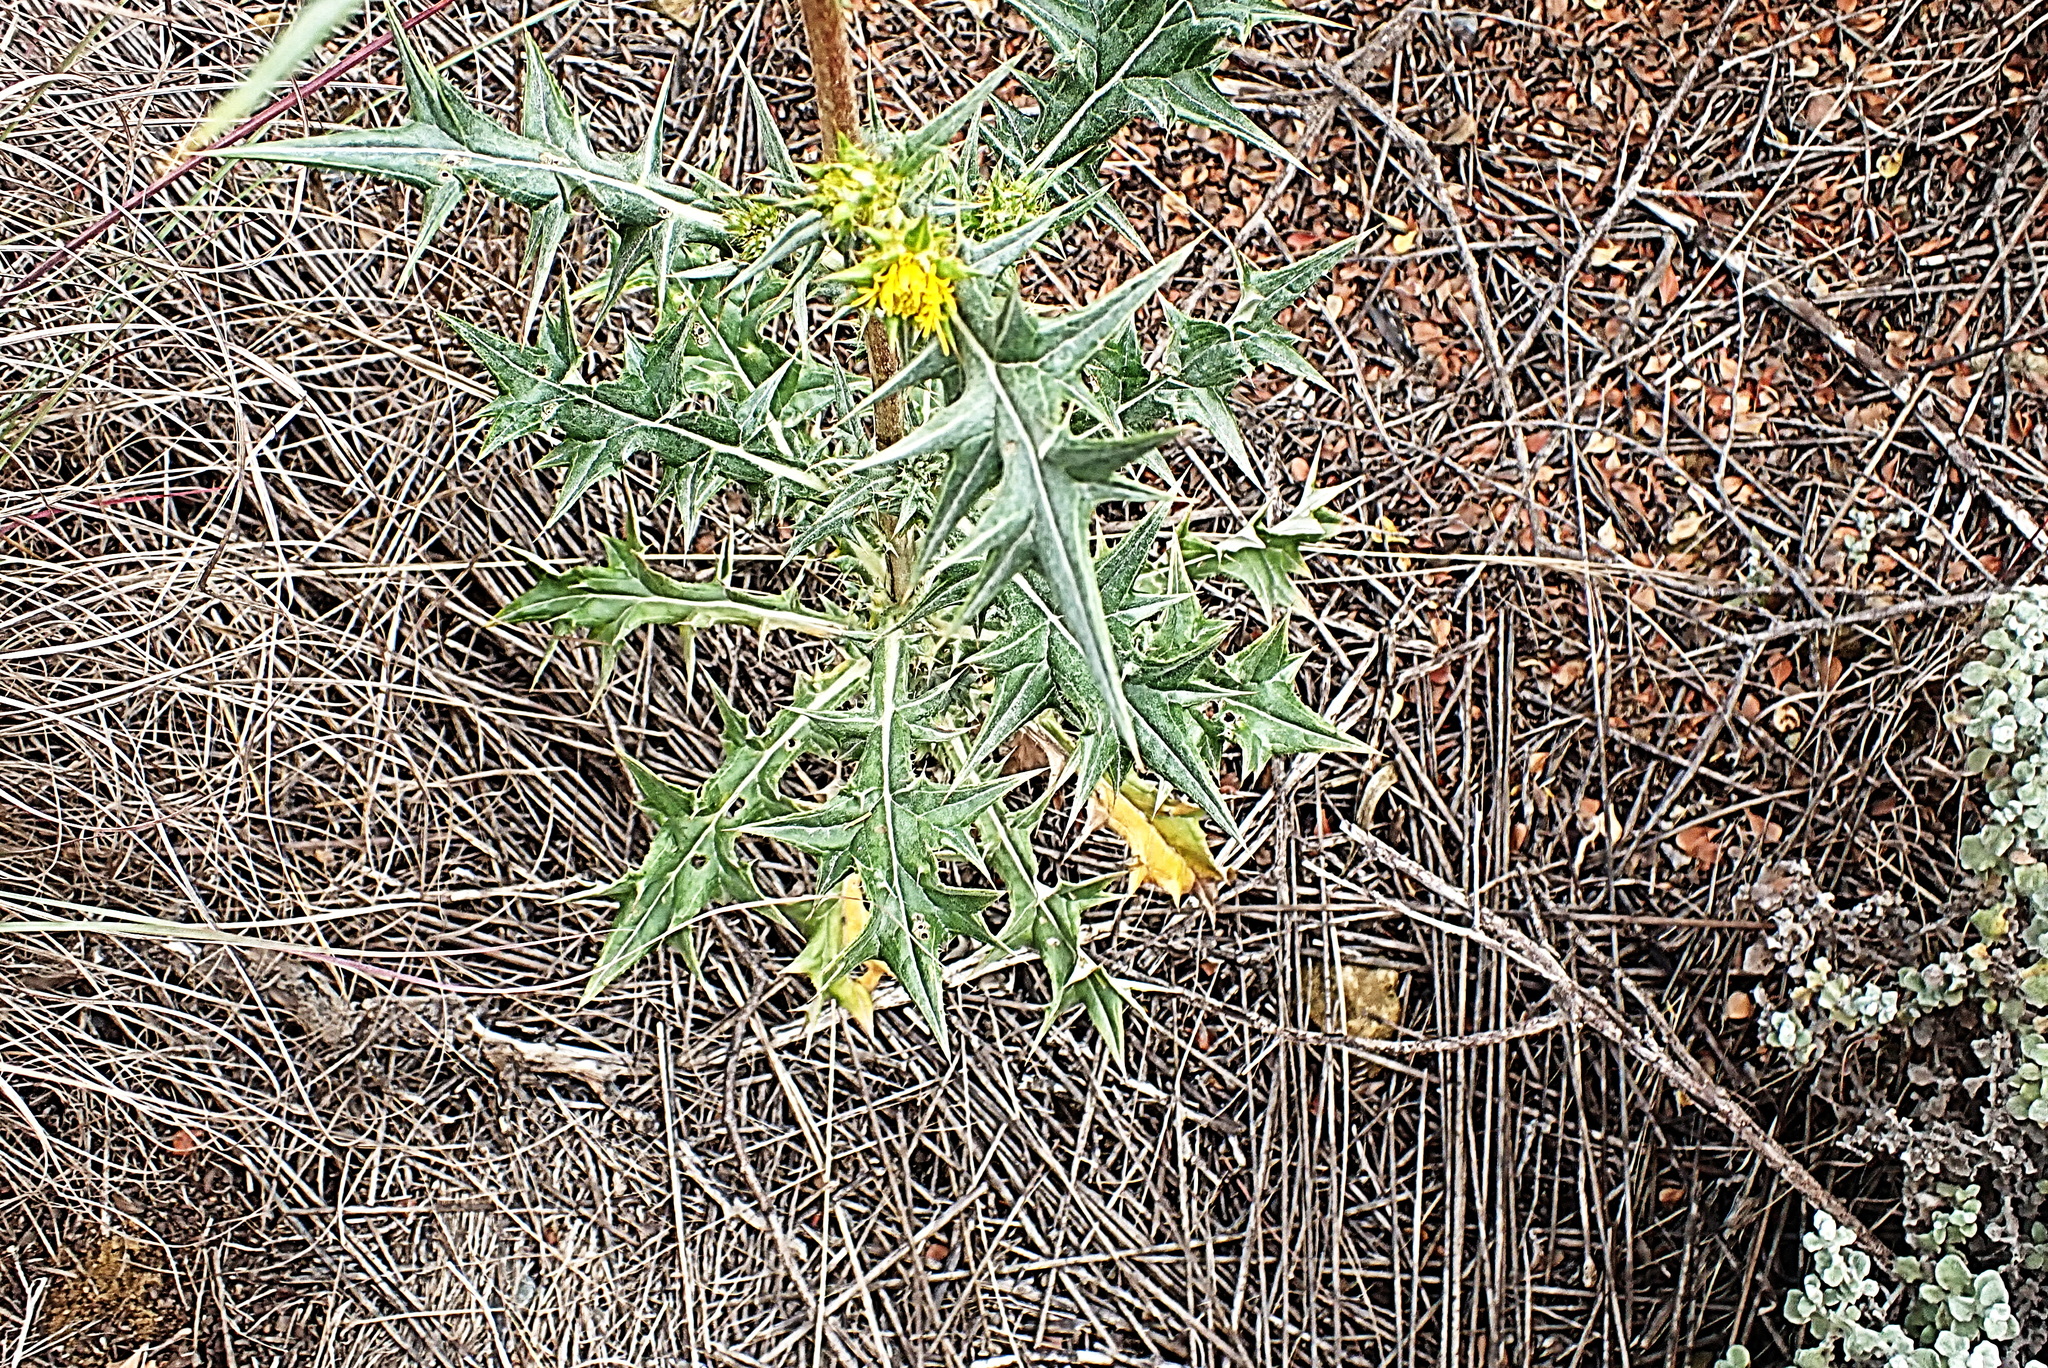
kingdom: Plantae
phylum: Tracheophyta
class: Magnoliopsida
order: Asterales
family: Asteraceae
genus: Berkheya
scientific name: Berkheya rigida
